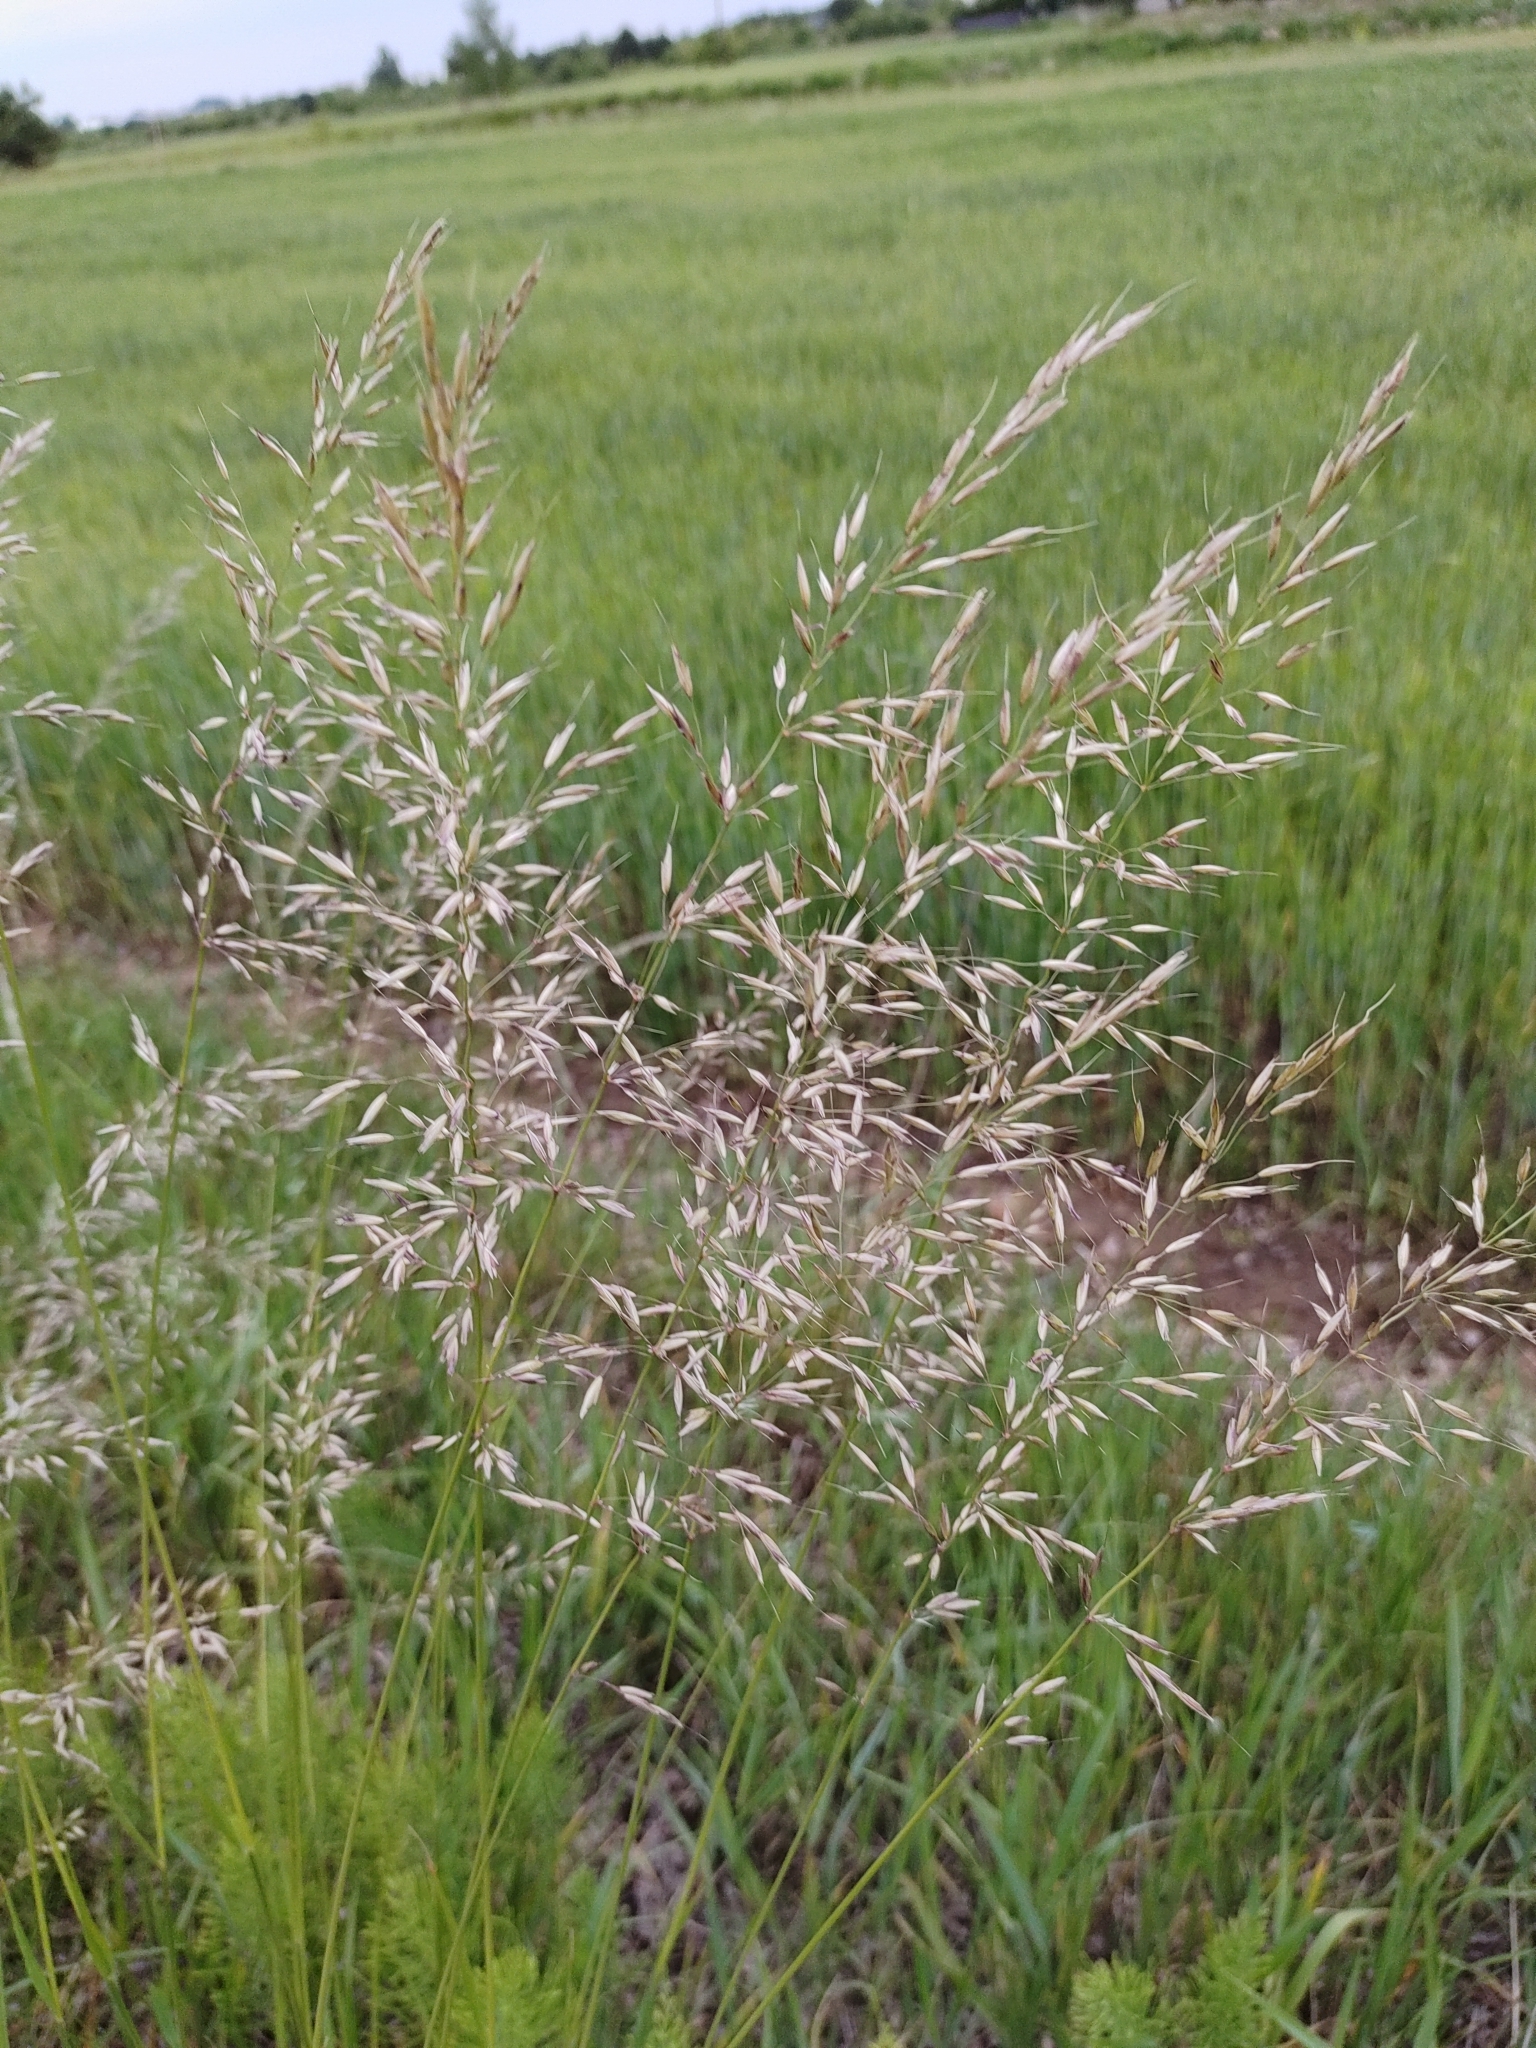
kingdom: Plantae
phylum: Tracheophyta
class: Liliopsida
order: Poales
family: Poaceae
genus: Arrhenatherum
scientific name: Arrhenatherum elatius
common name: Tall oatgrass
